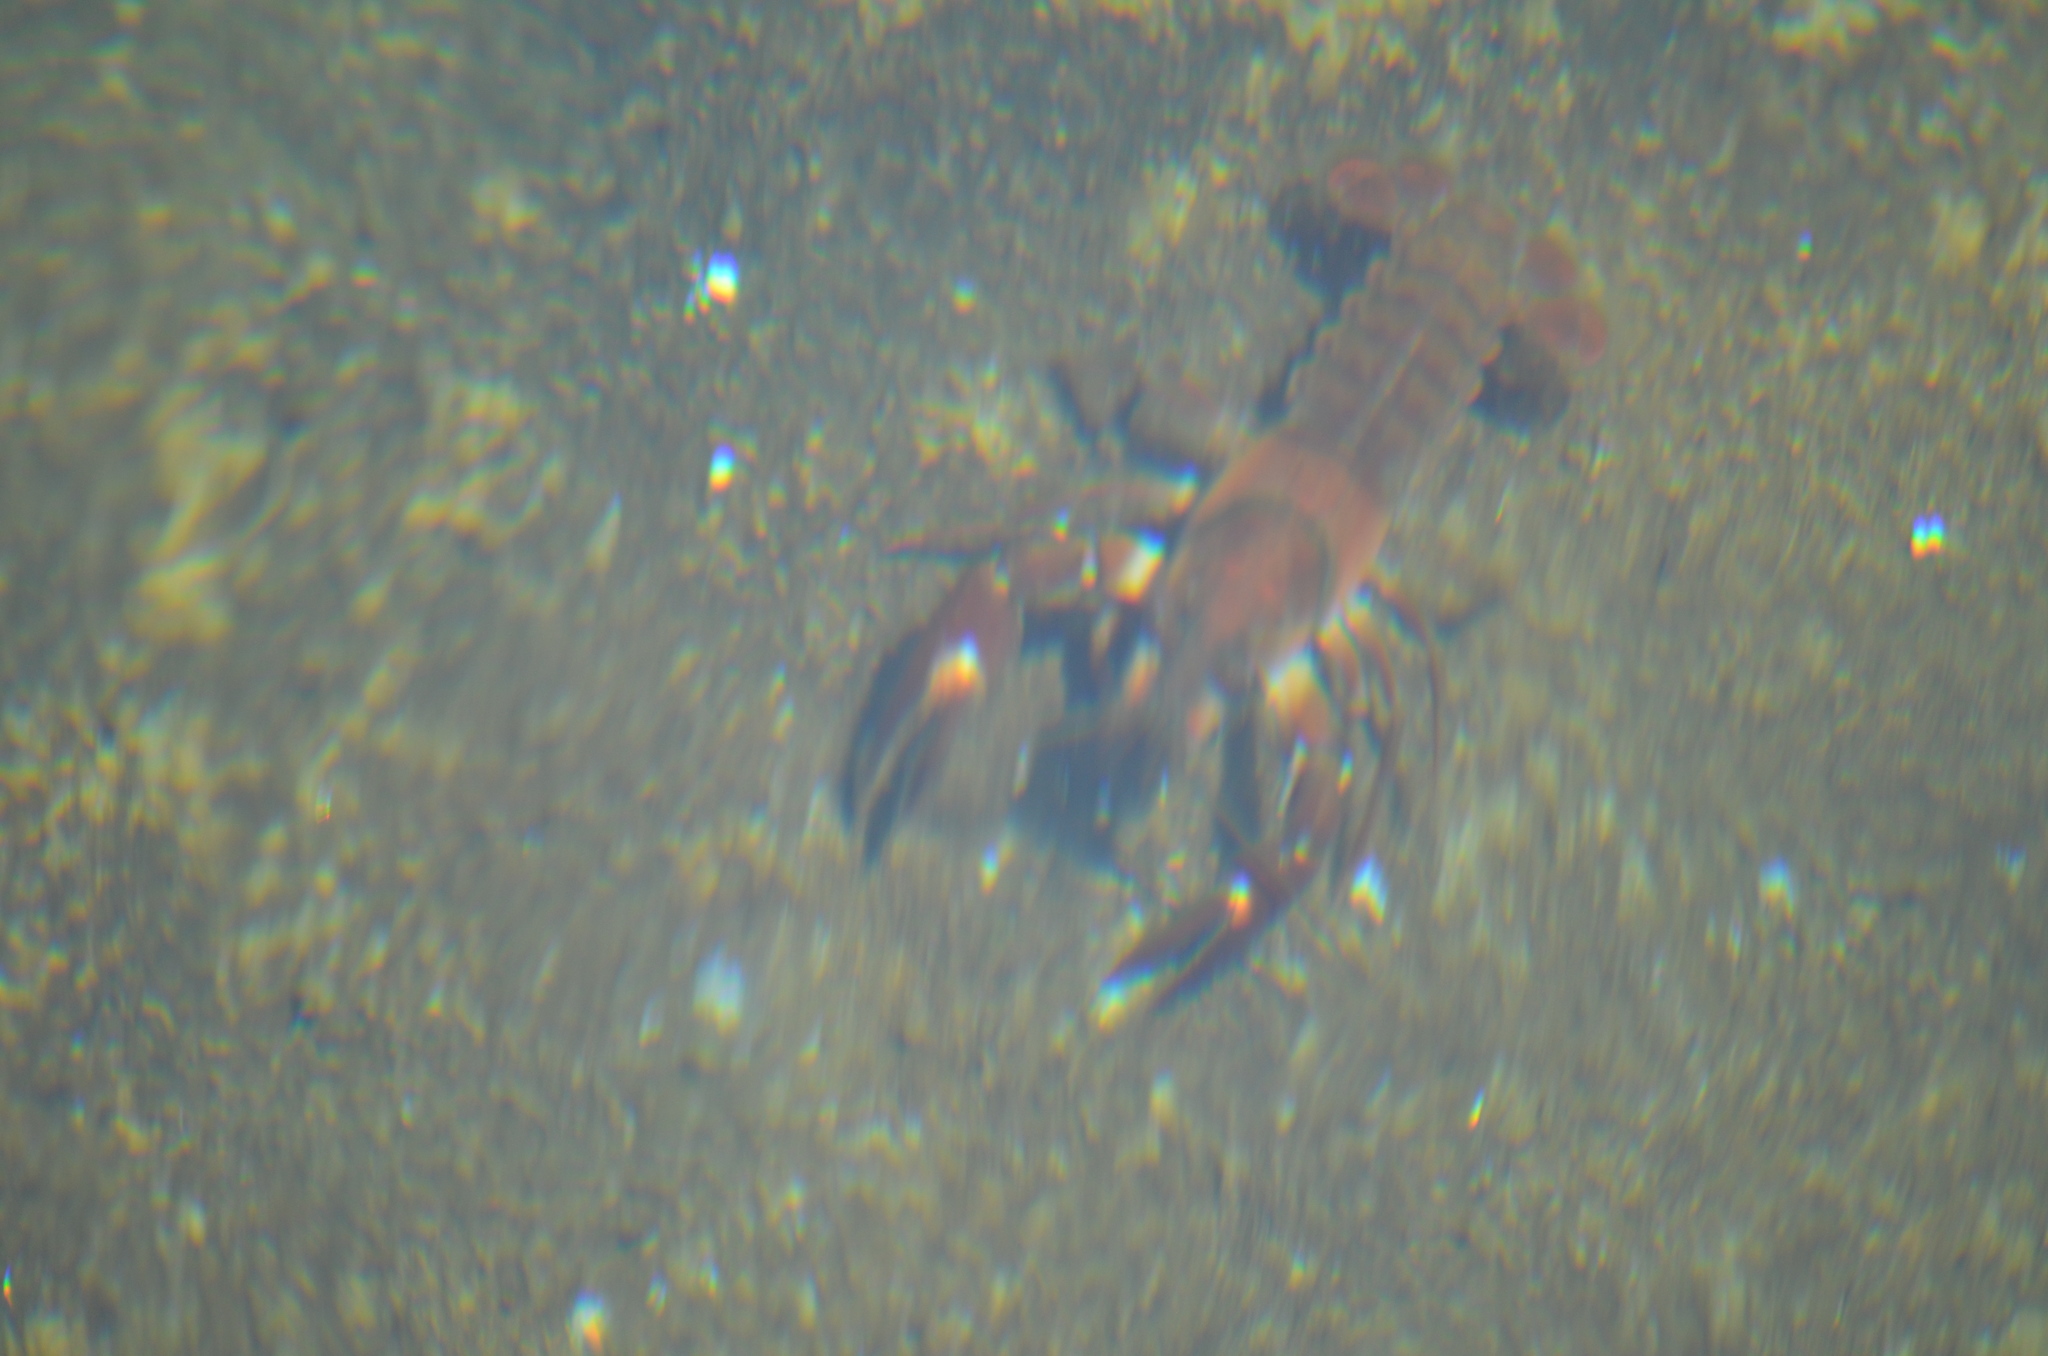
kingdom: Animalia
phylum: Arthropoda
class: Malacostraca
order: Decapoda
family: Astacidae
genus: Pacifastacus
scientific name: Pacifastacus leniusculus
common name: Signal crayfish
